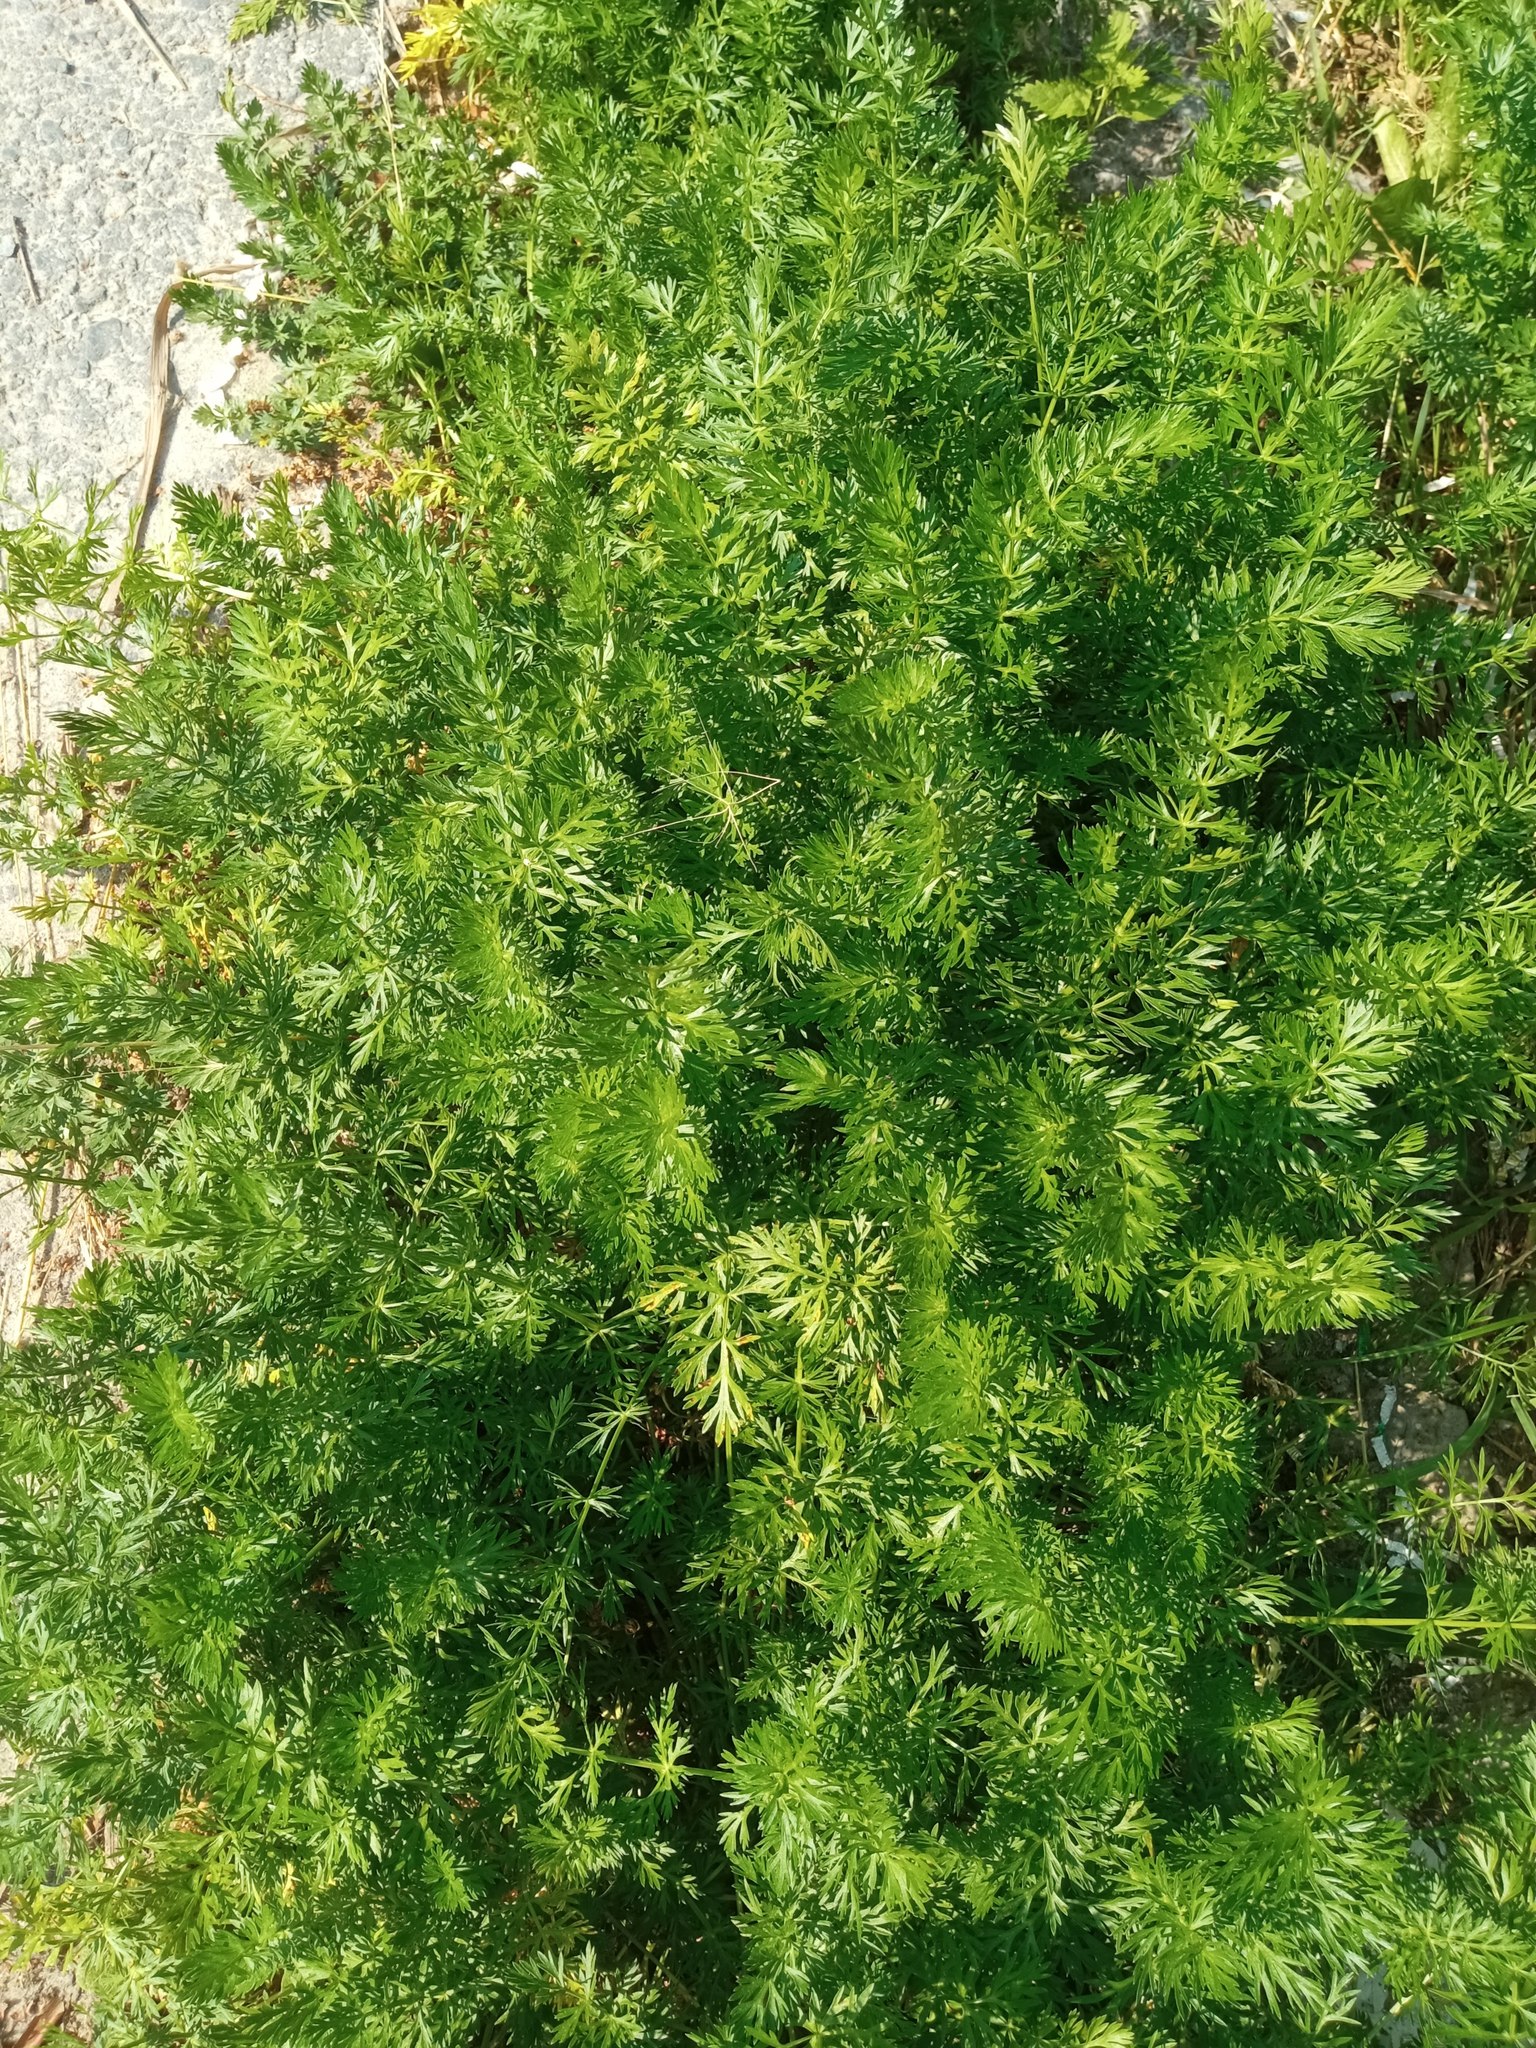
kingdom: Plantae
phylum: Tracheophyta
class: Magnoliopsida
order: Apiales
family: Apiaceae
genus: Carum
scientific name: Carum carvi
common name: Caraway
